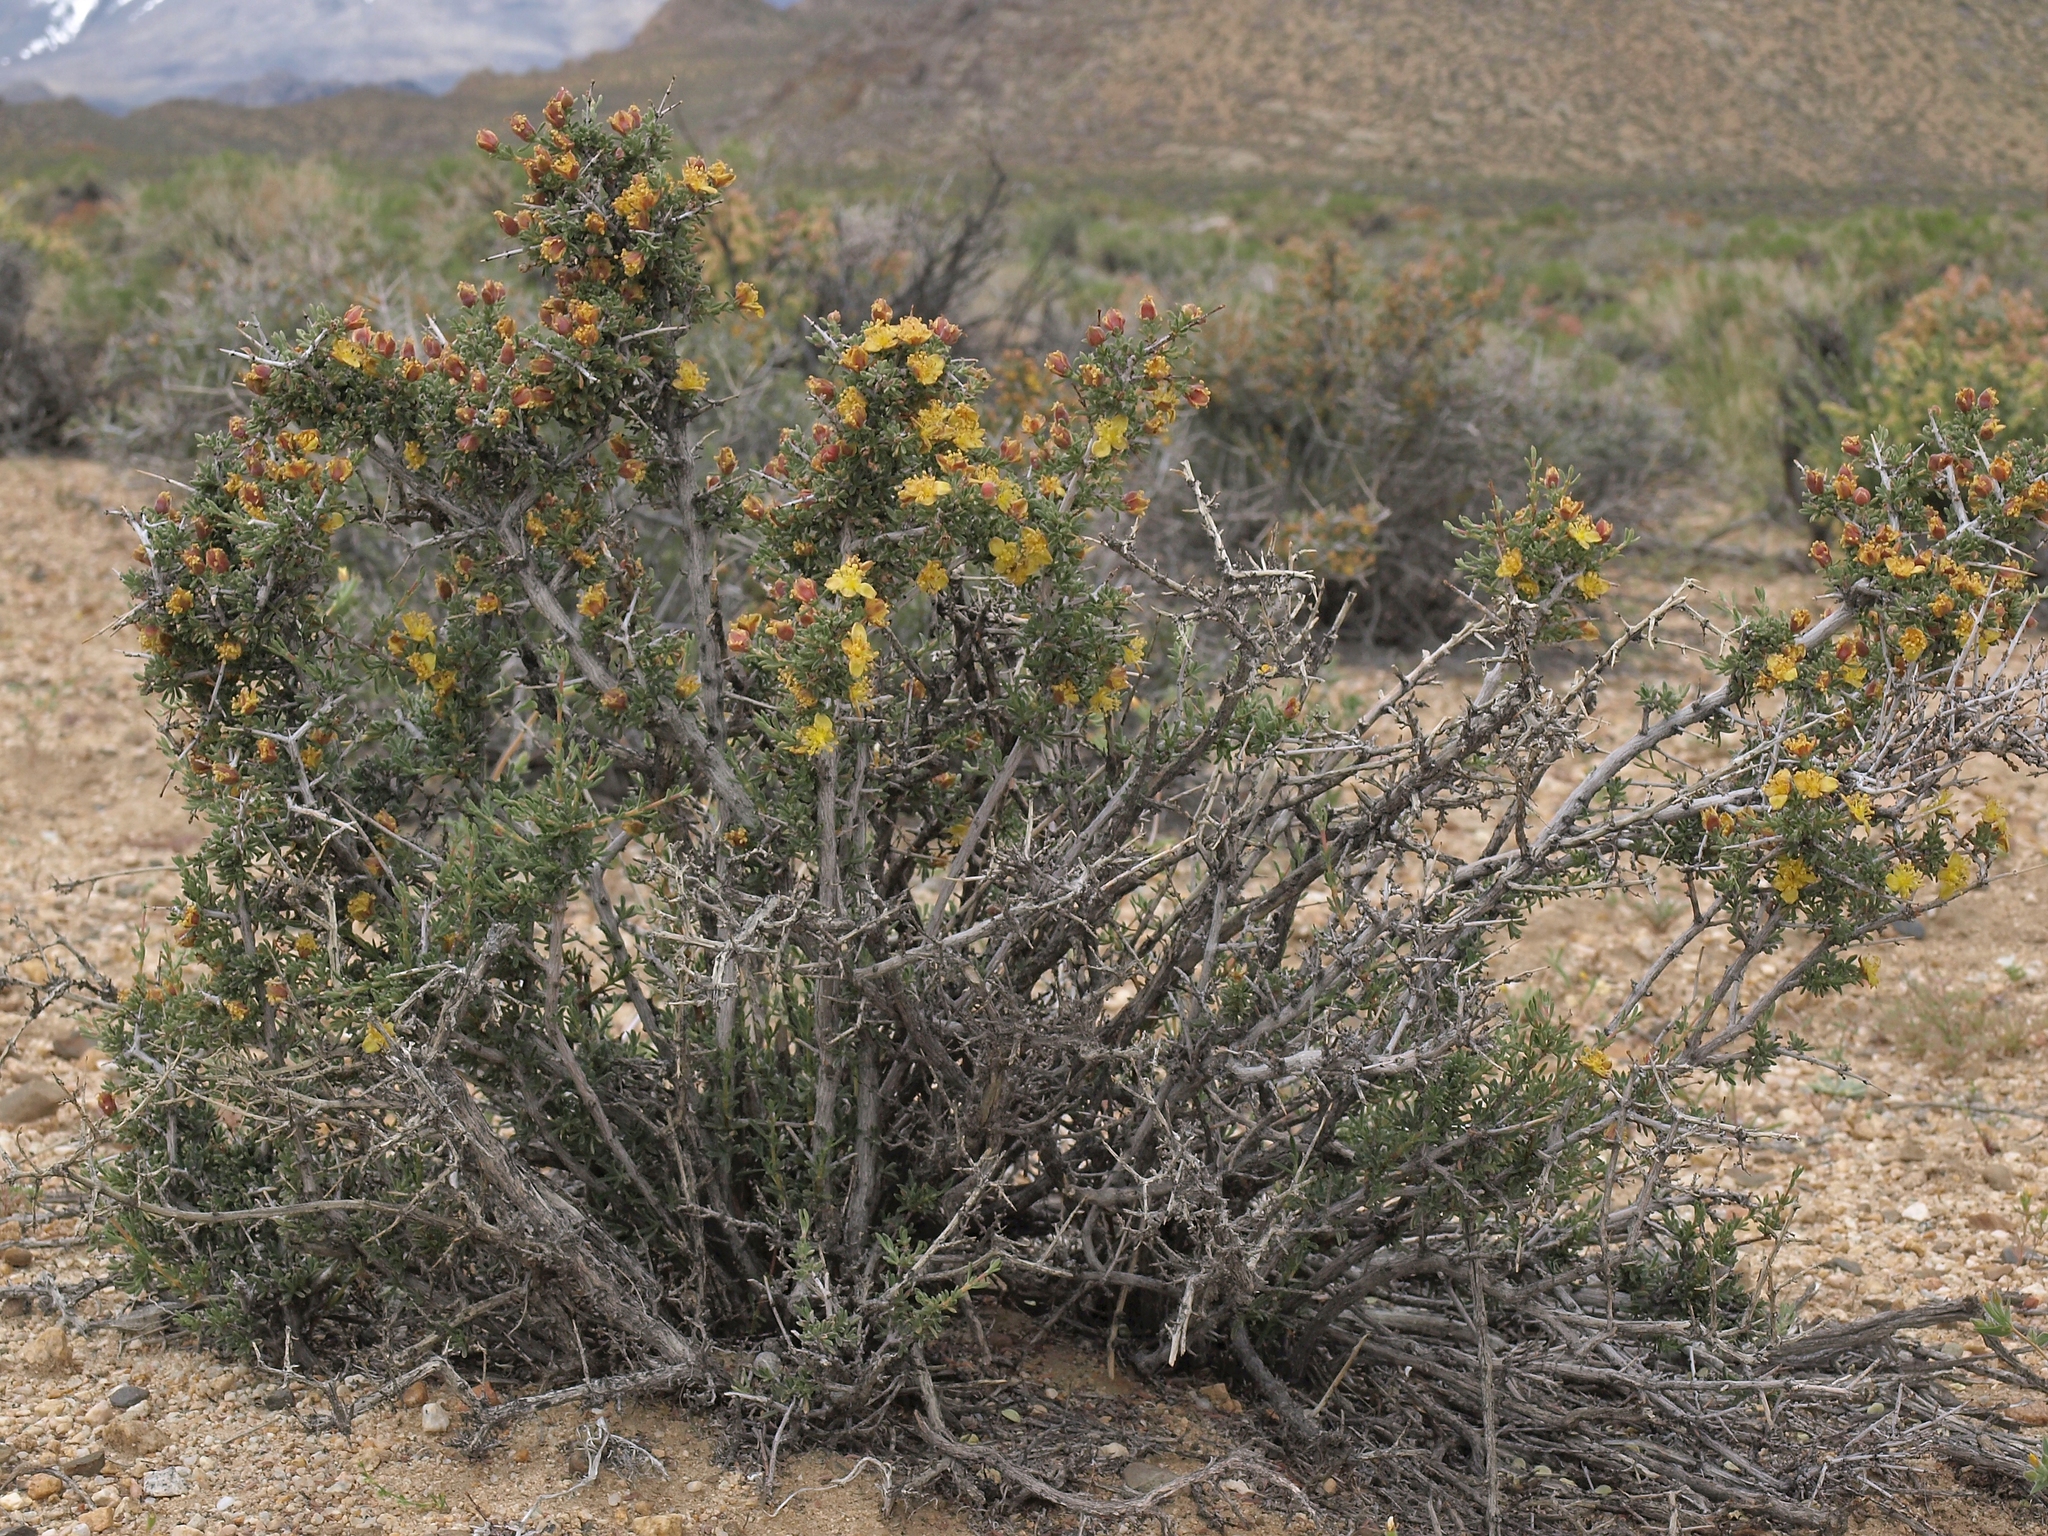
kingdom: Plantae
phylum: Tracheophyta
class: Magnoliopsida
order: Rosales
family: Rosaceae
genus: Coleogyne
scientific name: Coleogyne ramosissima
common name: Blackbrush
